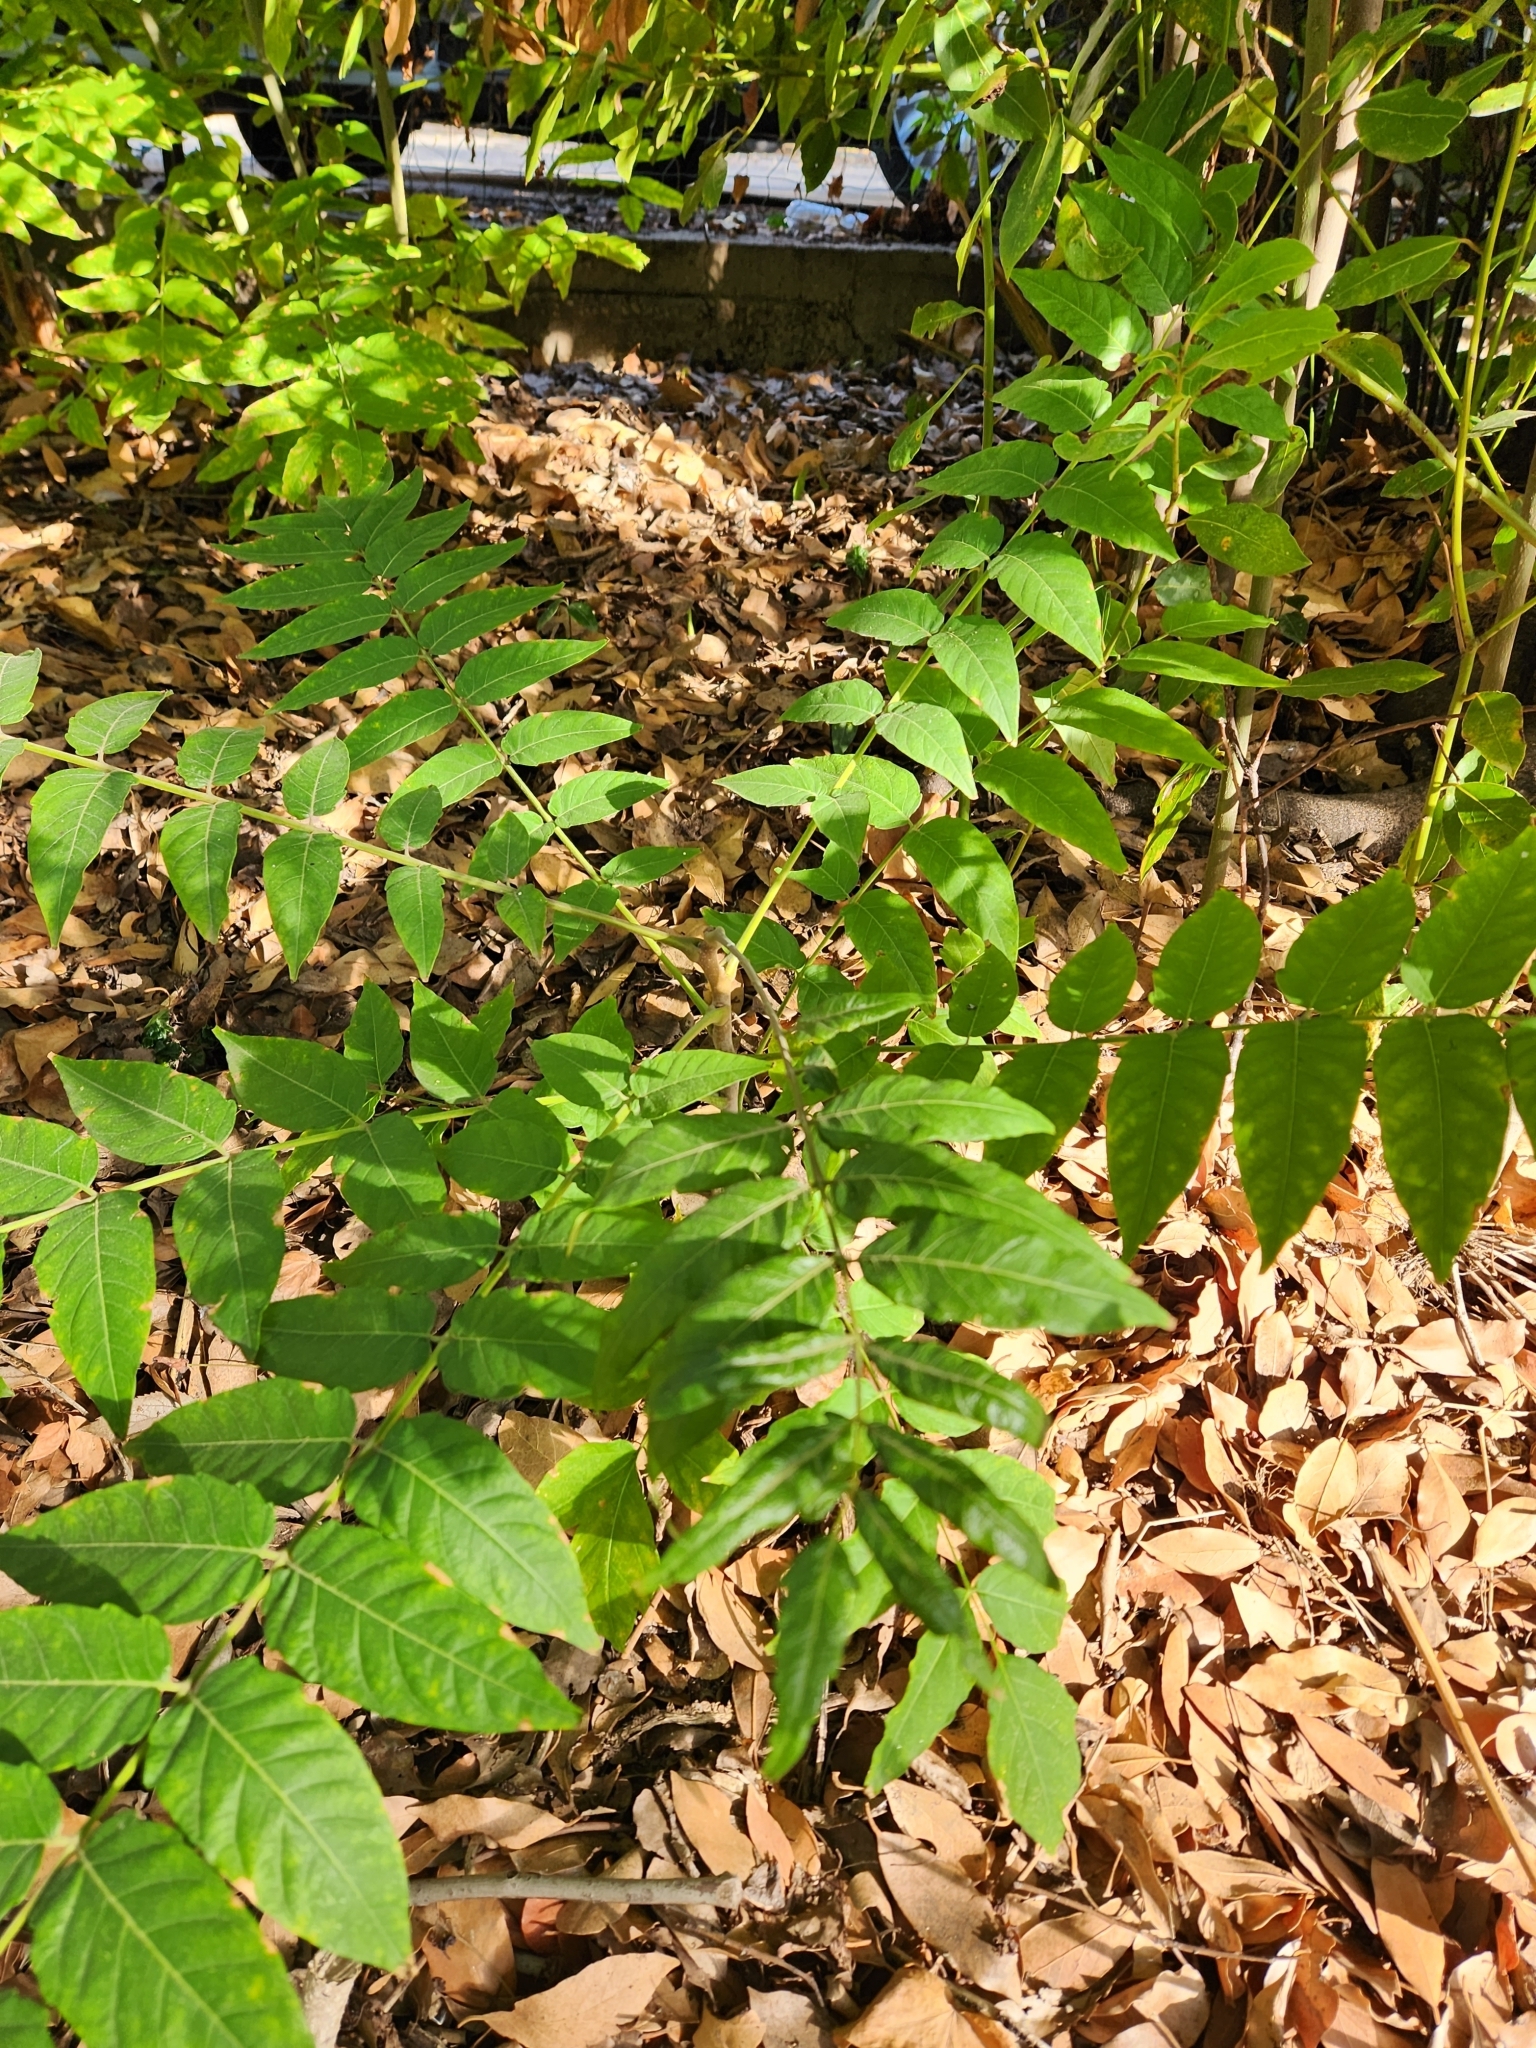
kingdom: Plantae
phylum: Tracheophyta
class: Magnoliopsida
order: Sapindales
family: Simaroubaceae
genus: Ailanthus
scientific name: Ailanthus altissima
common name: Tree-of-heaven
